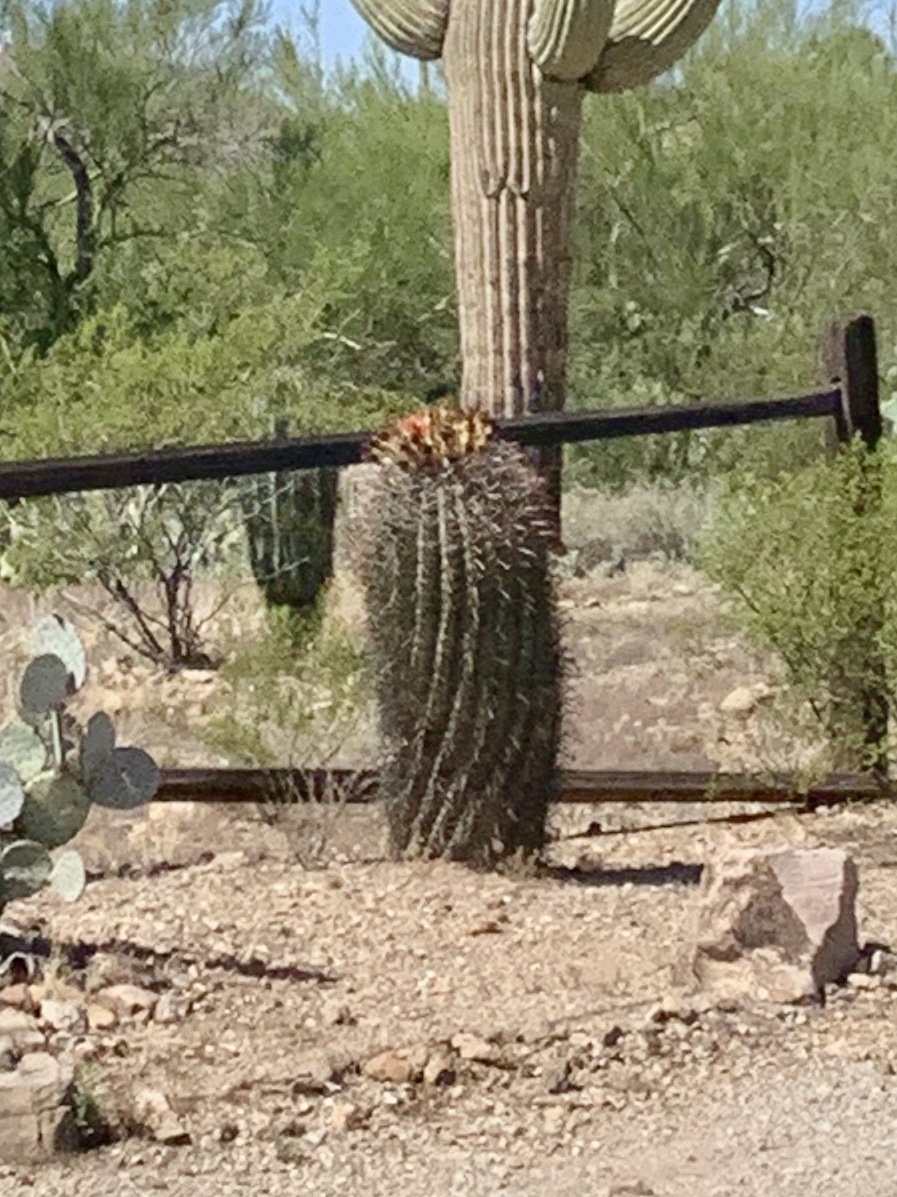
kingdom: Plantae
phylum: Tracheophyta
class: Magnoliopsida
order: Caryophyllales
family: Cactaceae
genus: Ferocactus
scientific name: Ferocactus wislizeni
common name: Candy barrel cactus
